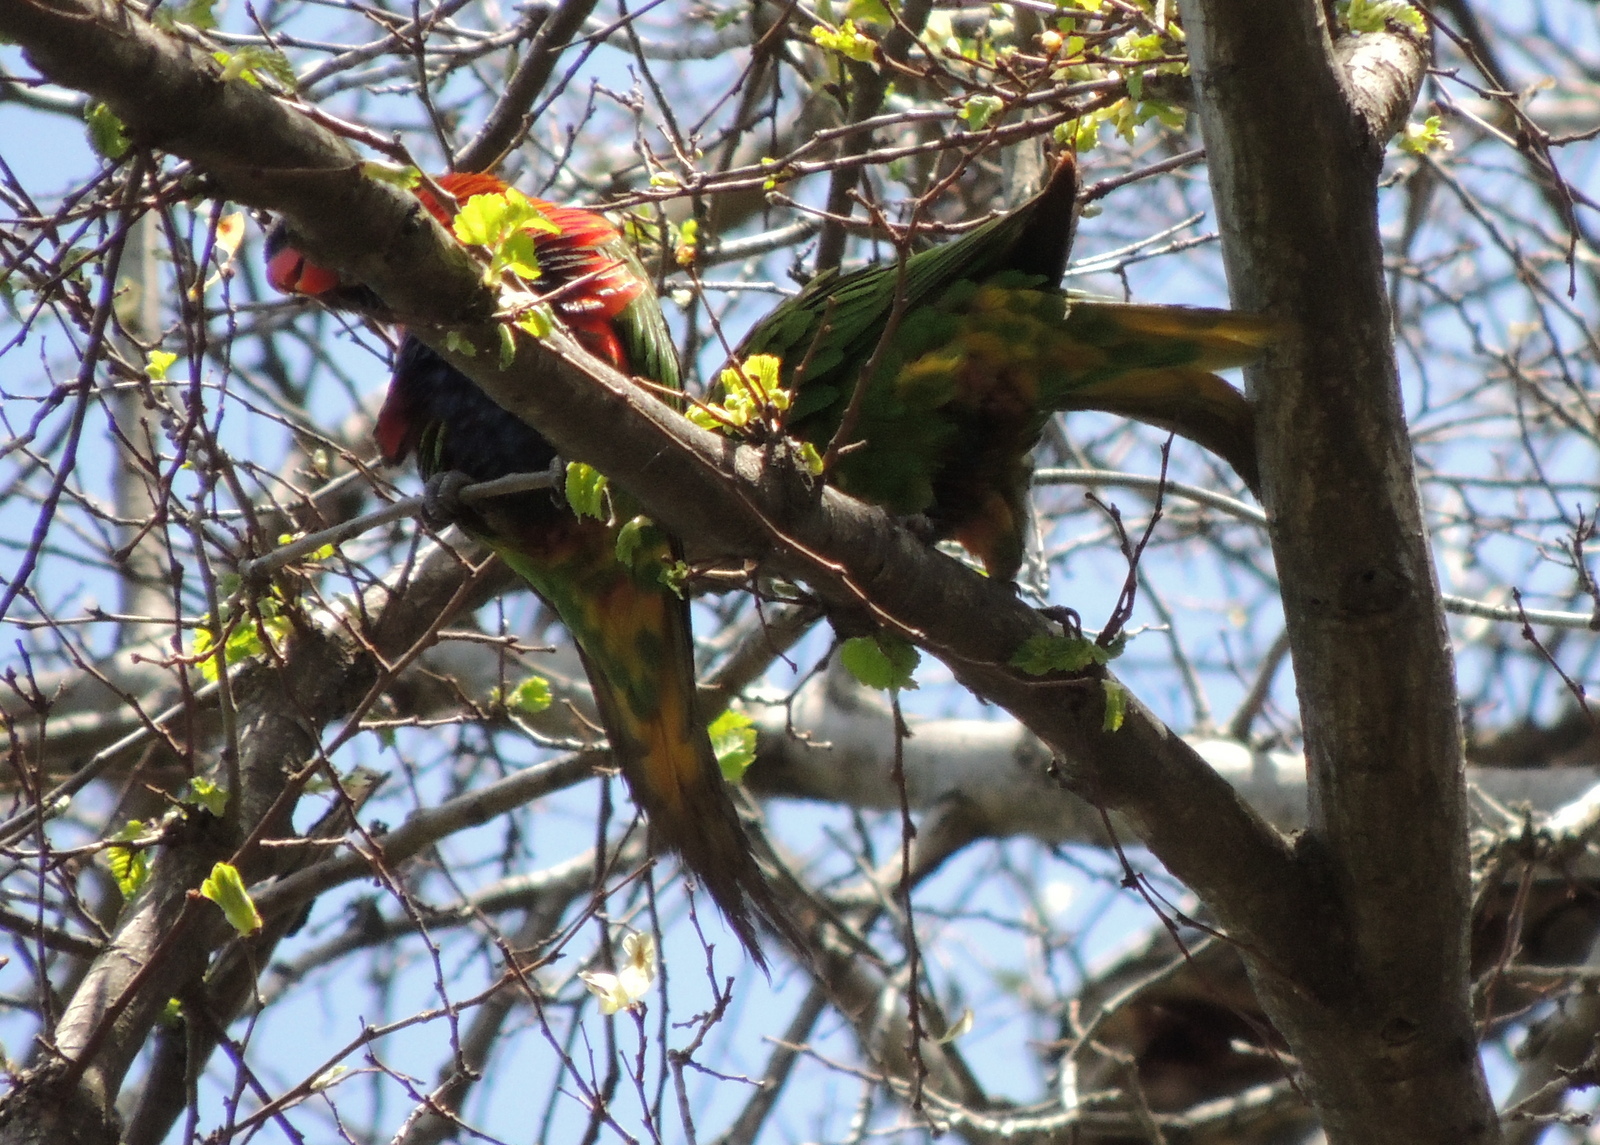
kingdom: Animalia
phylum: Chordata
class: Aves
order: Psittaciformes
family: Psittacidae
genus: Trichoglossus
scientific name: Trichoglossus haematodus
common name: Coconut lorikeet
